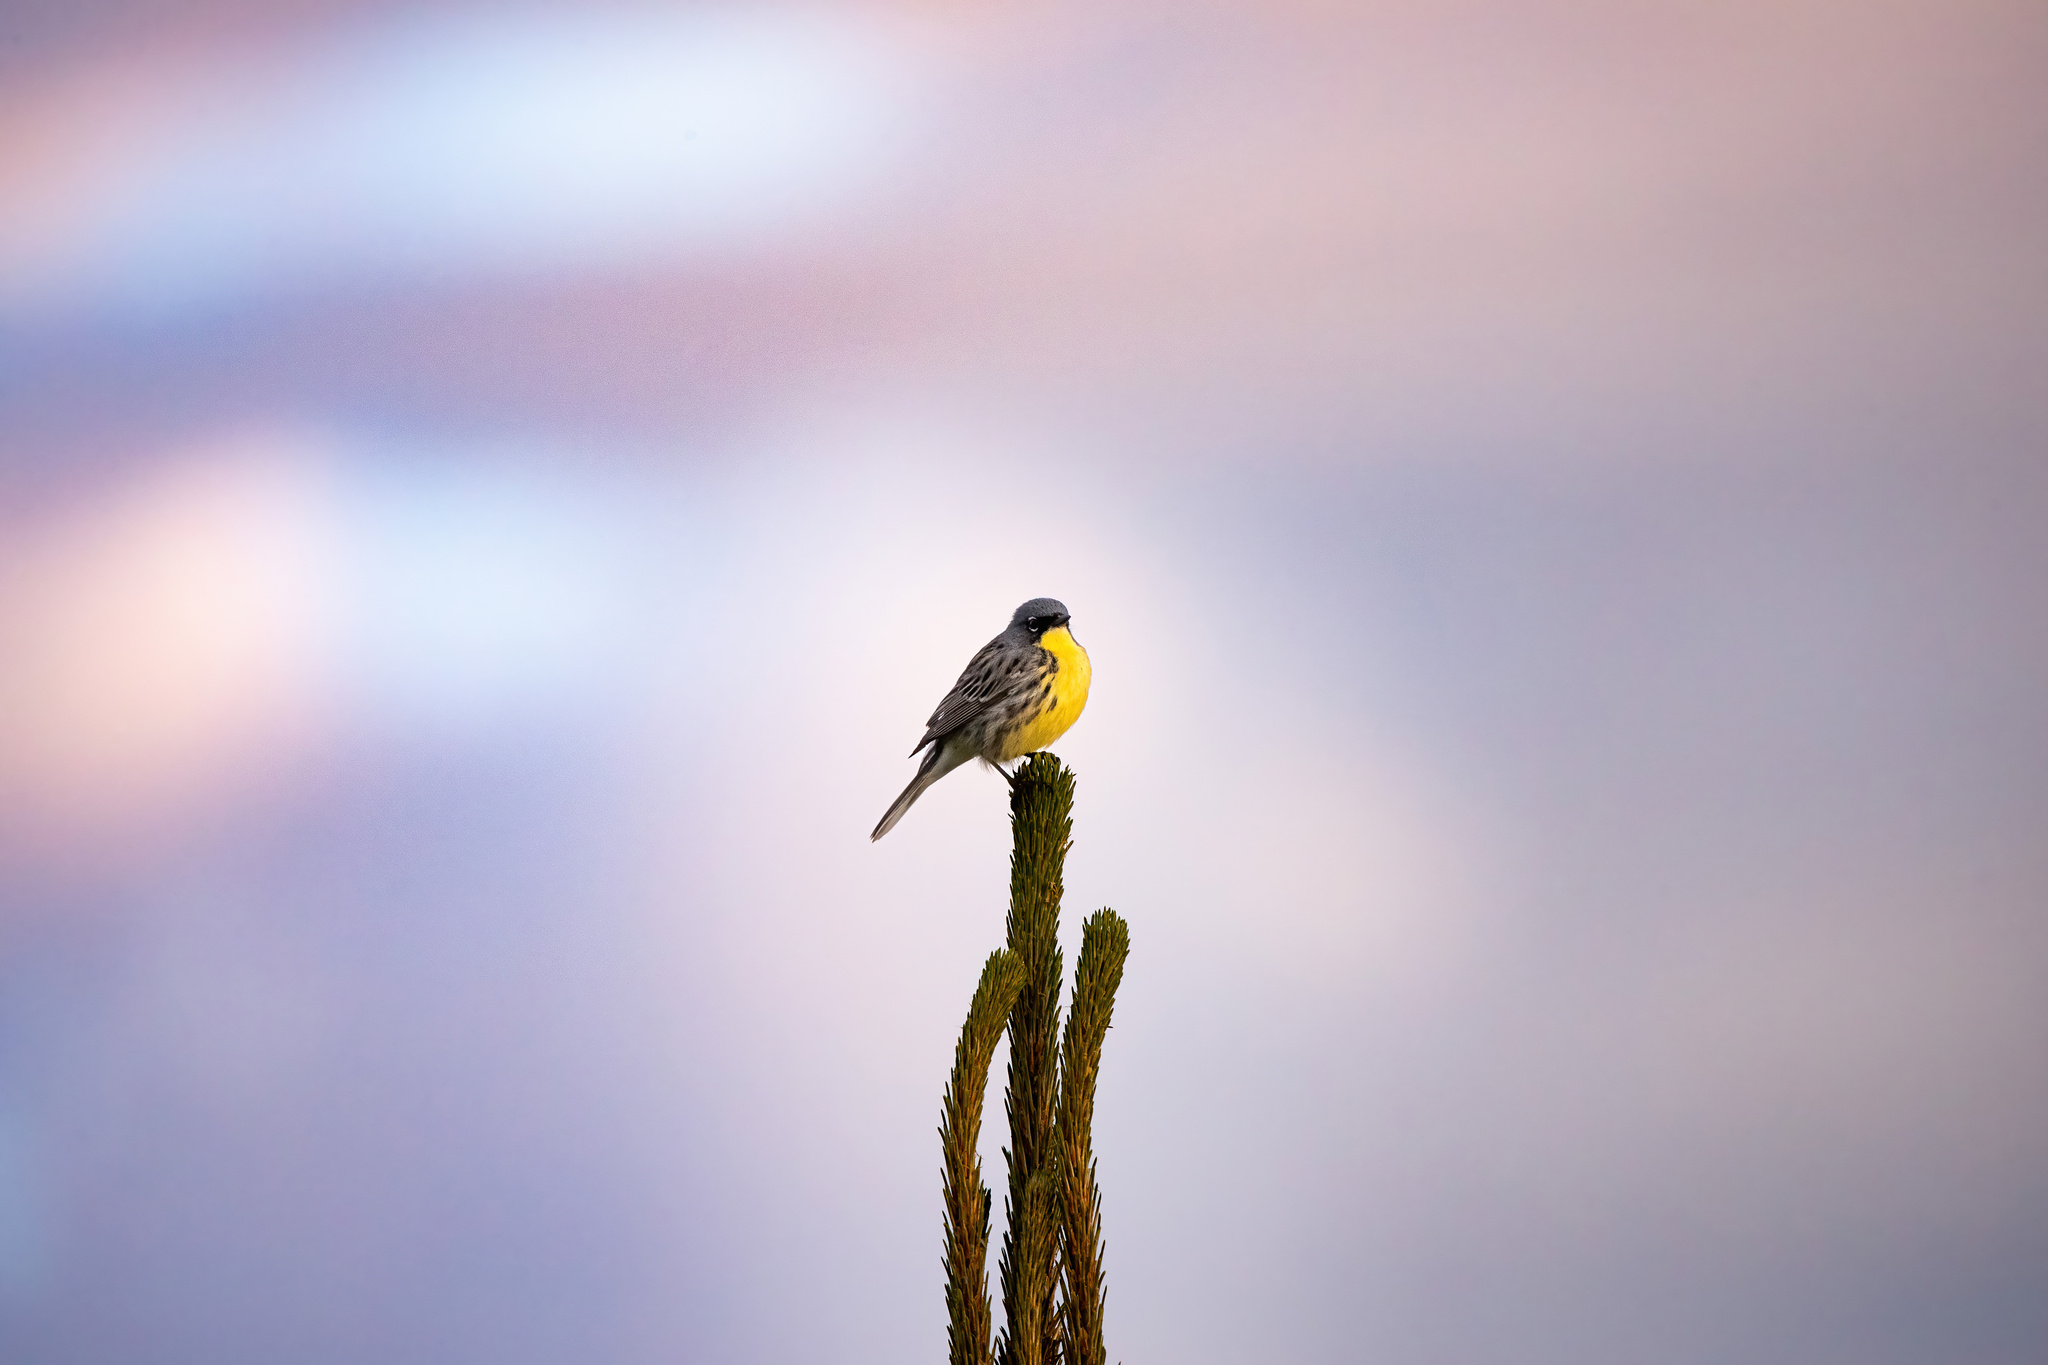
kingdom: Animalia
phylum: Chordata
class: Aves
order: Passeriformes
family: Parulidae
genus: Setophaga
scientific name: Setophaga kirtlandii
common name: Kirtland's warbler
